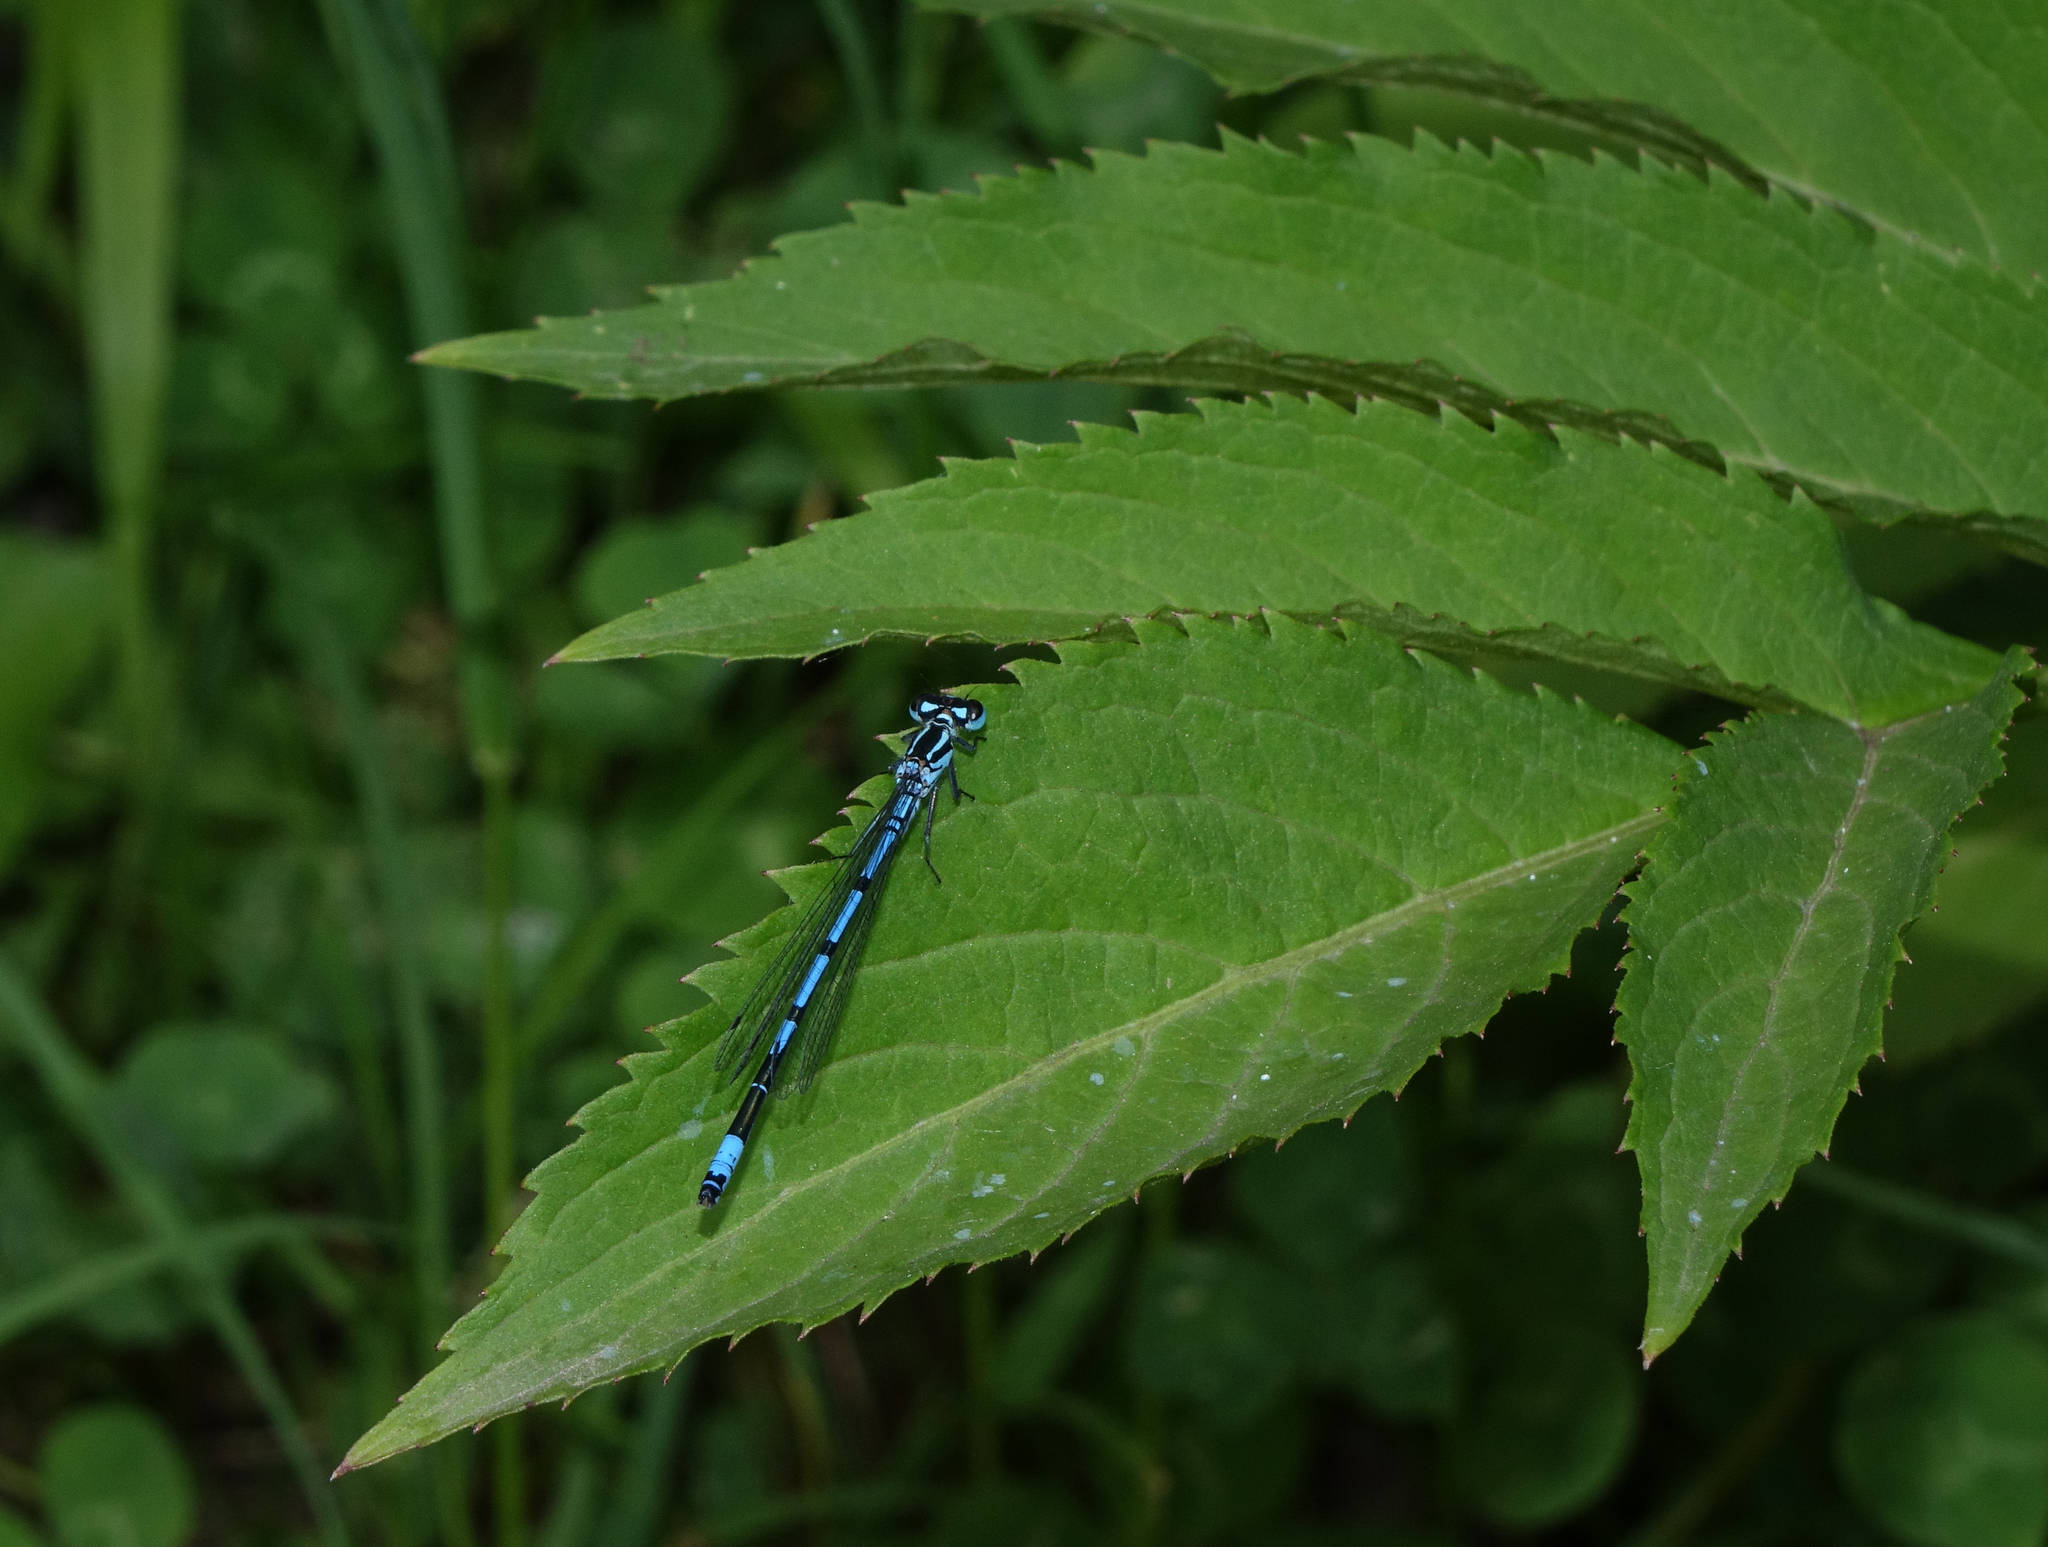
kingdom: Animalia
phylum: Arthropoda
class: Insecta
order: Odonata
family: Coenagrionidae
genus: Coenagrion
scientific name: Coenagrion puella
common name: Azure damselfly
